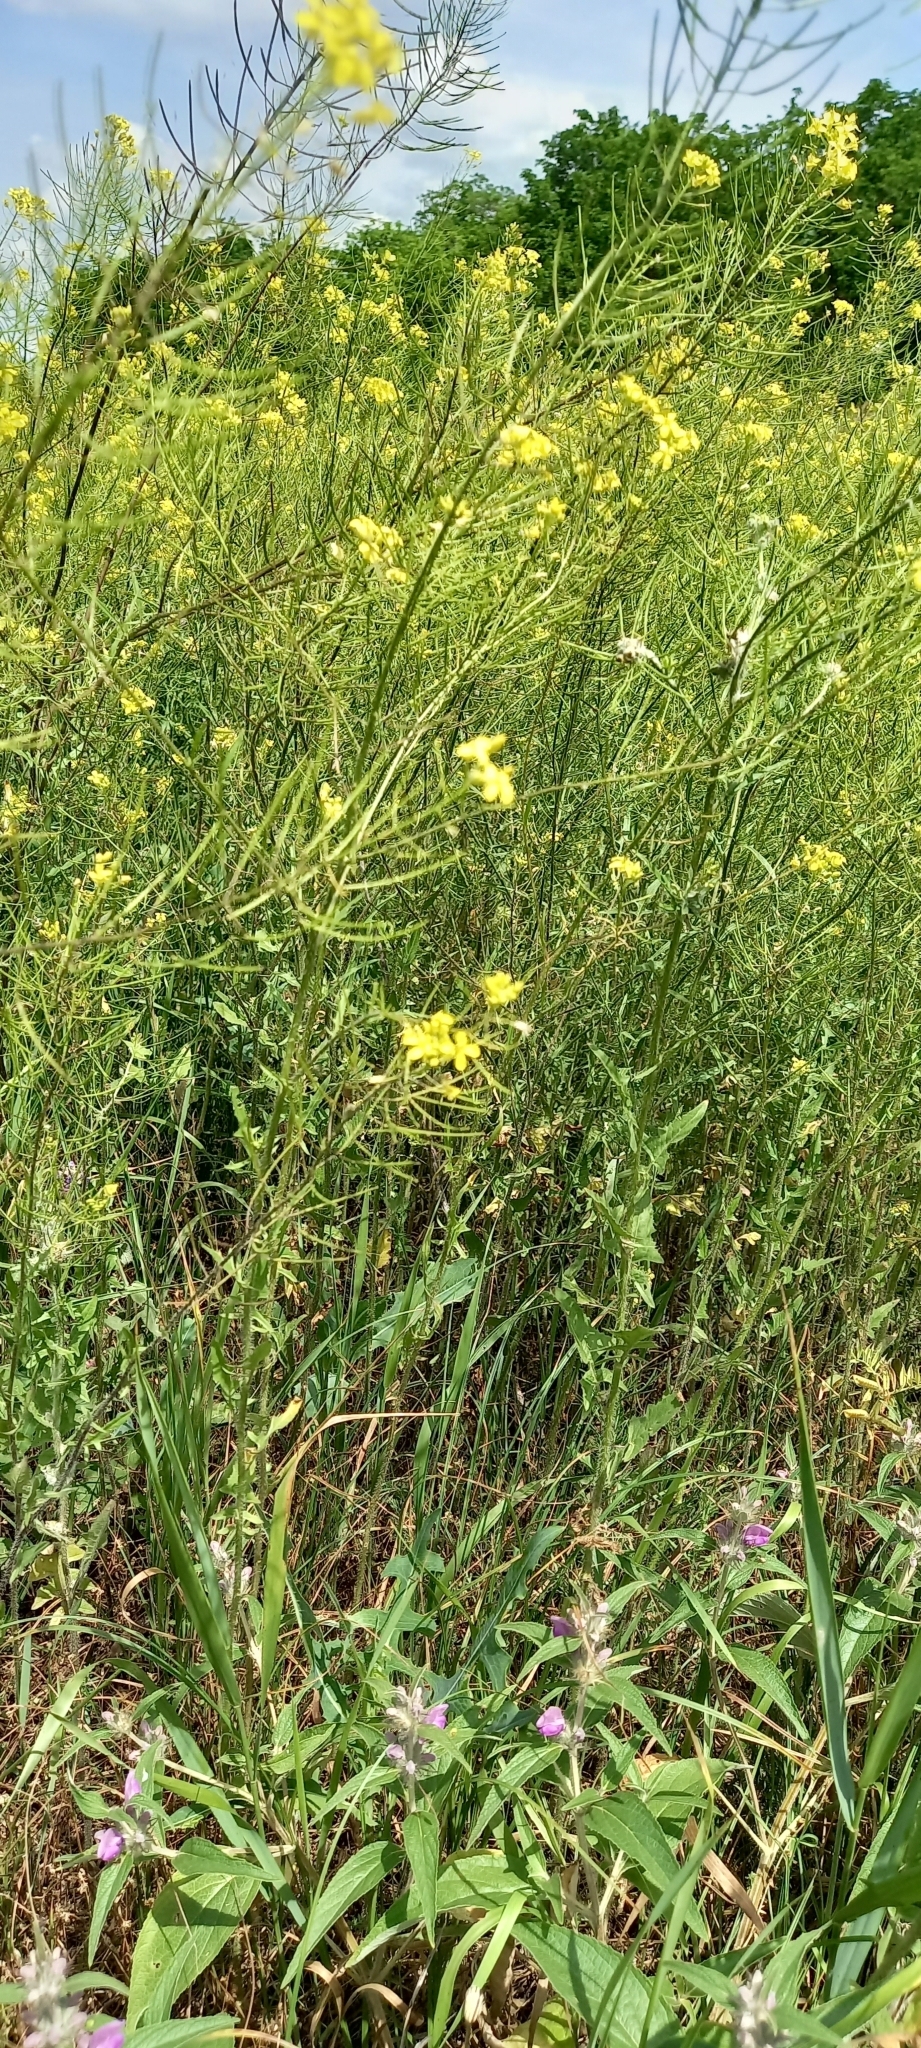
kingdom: Plantae
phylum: Tracheophyta
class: Magnoliopsida
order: Brassicales
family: Brassicaceae
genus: Sisymbrium
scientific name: Sisymbrium loeselii
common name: False london-rocket
